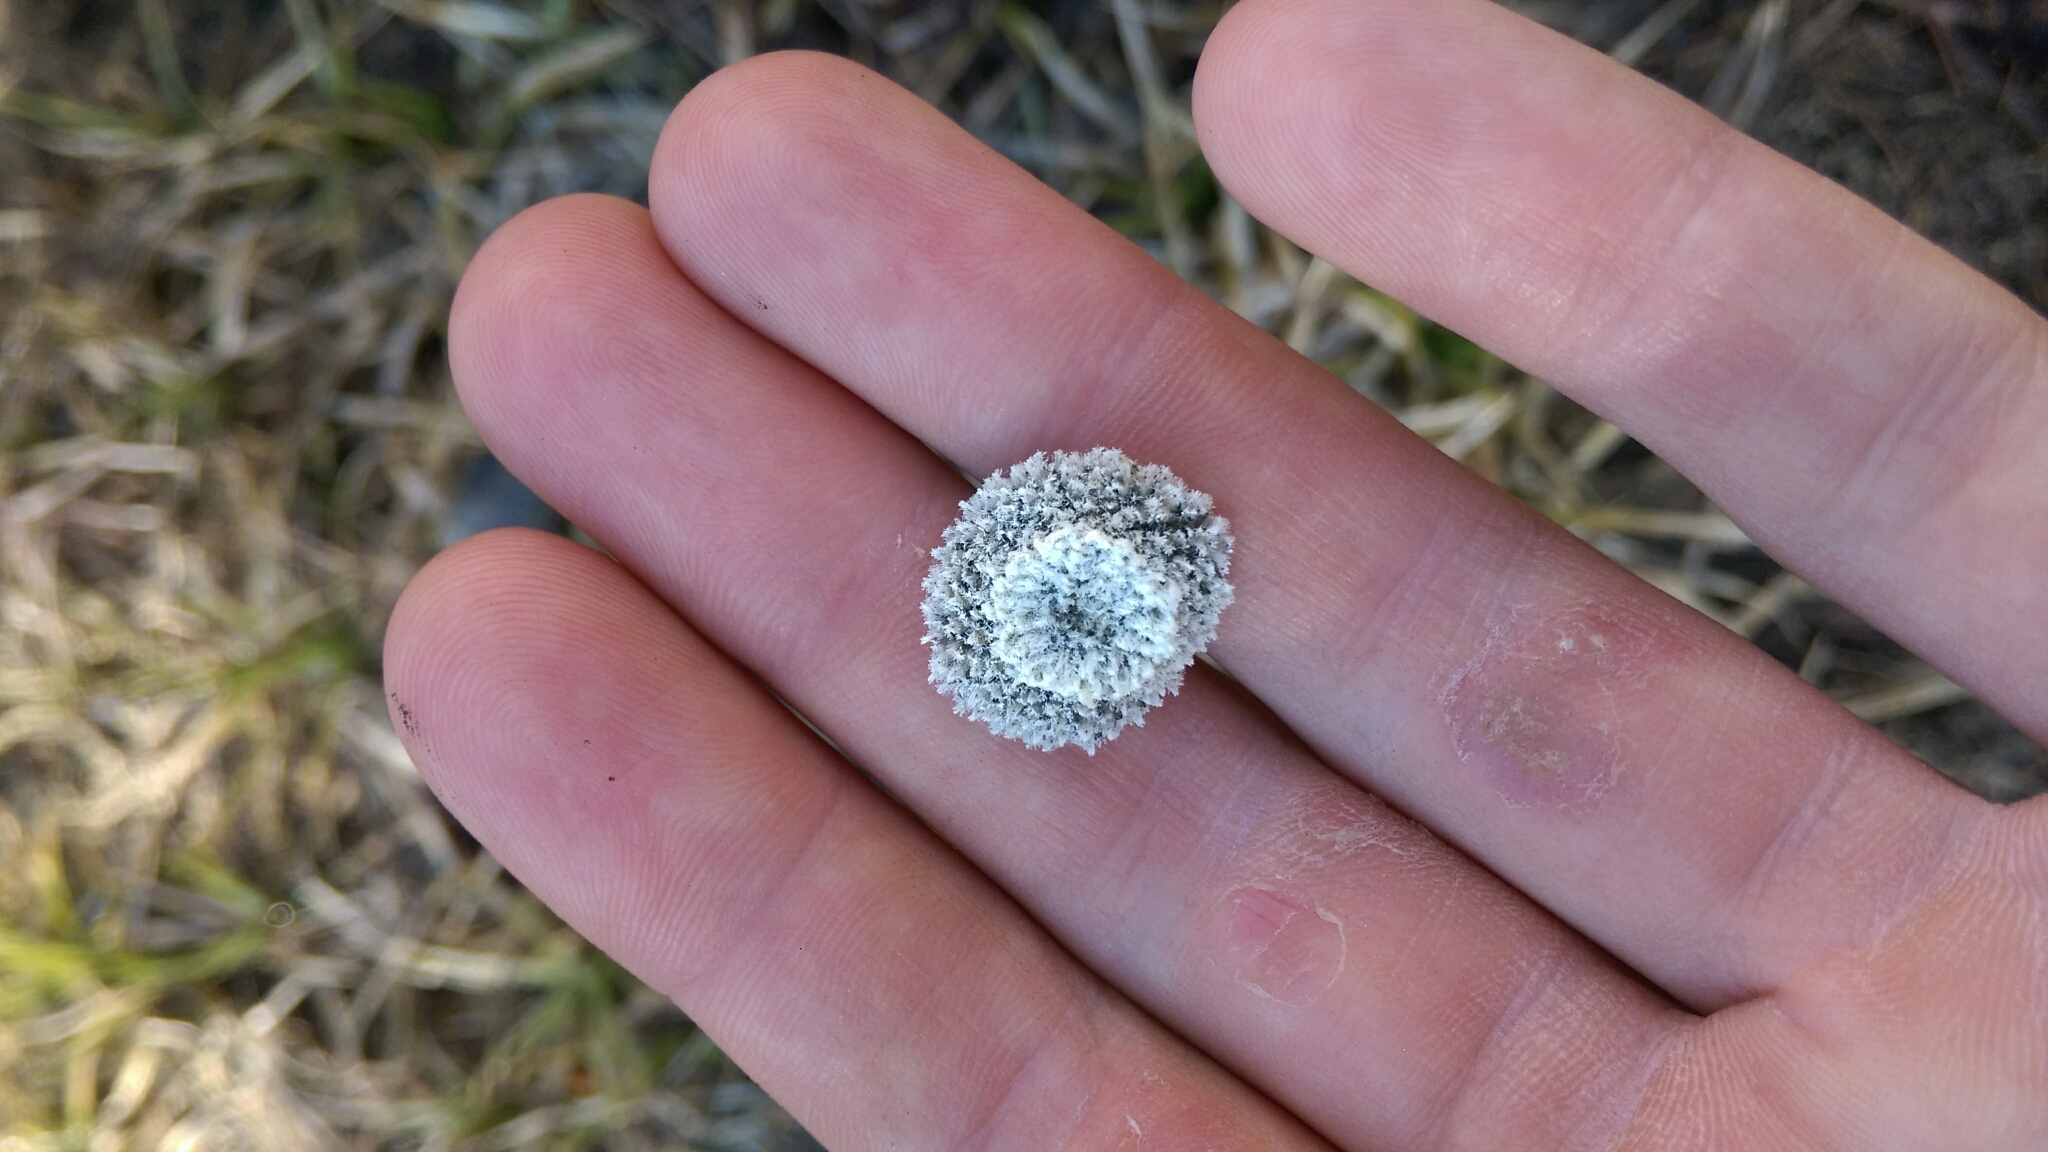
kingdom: Plantae
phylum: Tracheophyta
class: Liliopsida
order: Poales
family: Eriocaulaceae
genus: Eriocaulon
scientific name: Eriocaulon compressum
